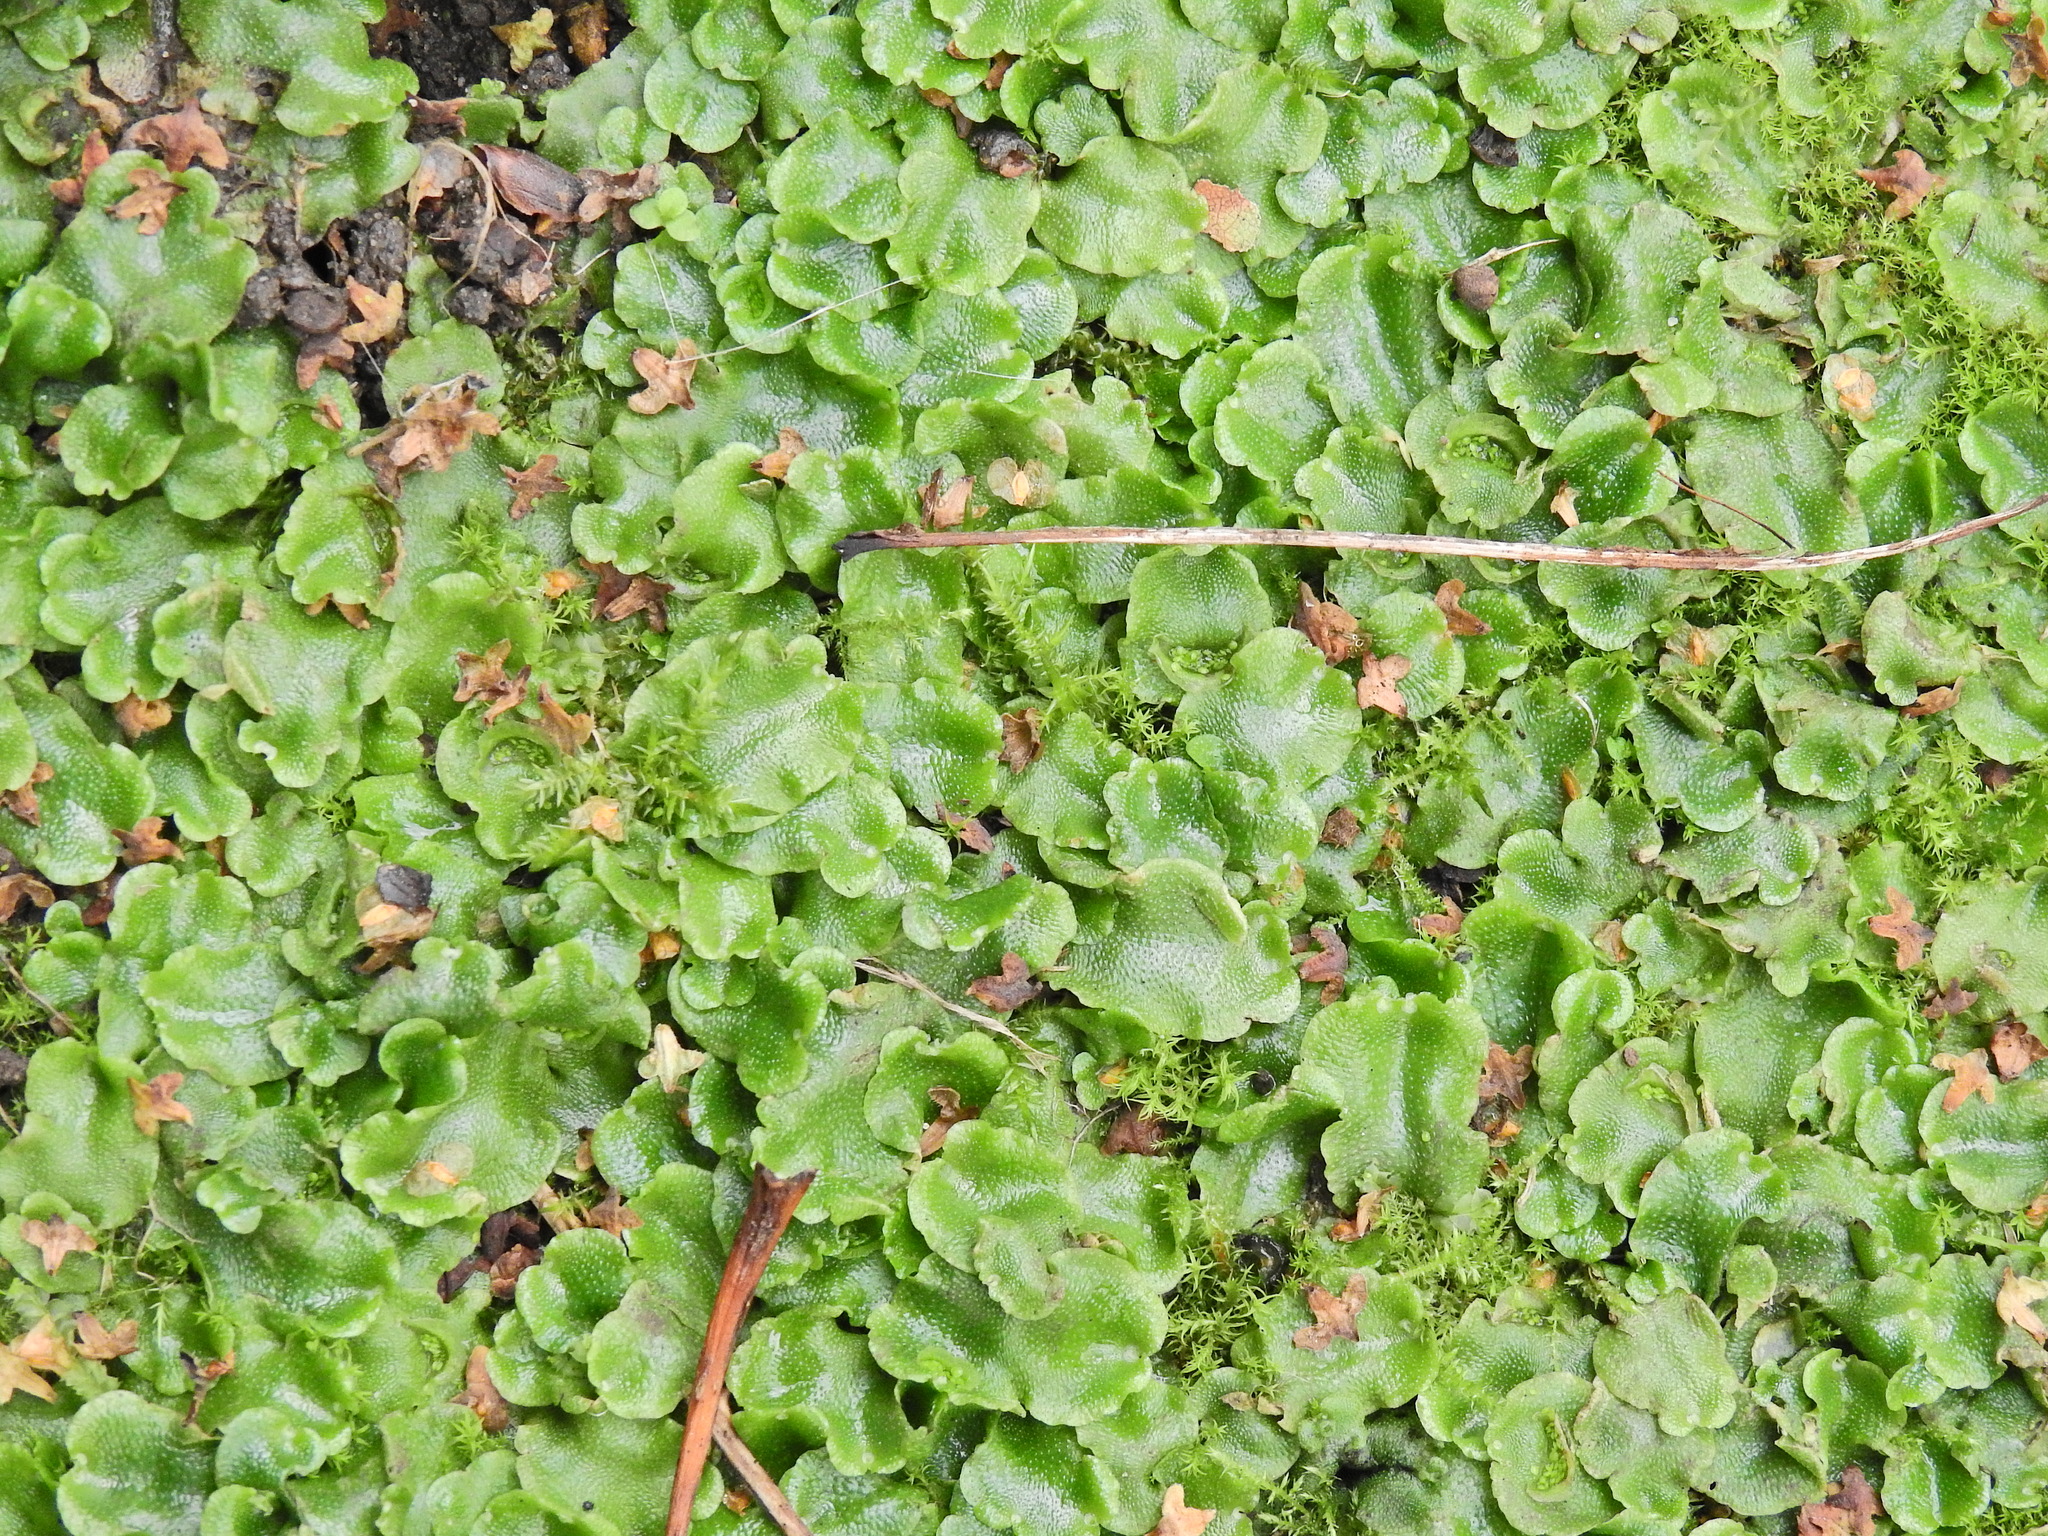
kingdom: Plantae
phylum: Marchantiophyta
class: Marchantiopsida
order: Lunulariales
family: Lunulariaceae
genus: Lunularia
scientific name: Lunularia cruciata
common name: Crescent-cup liverwort
